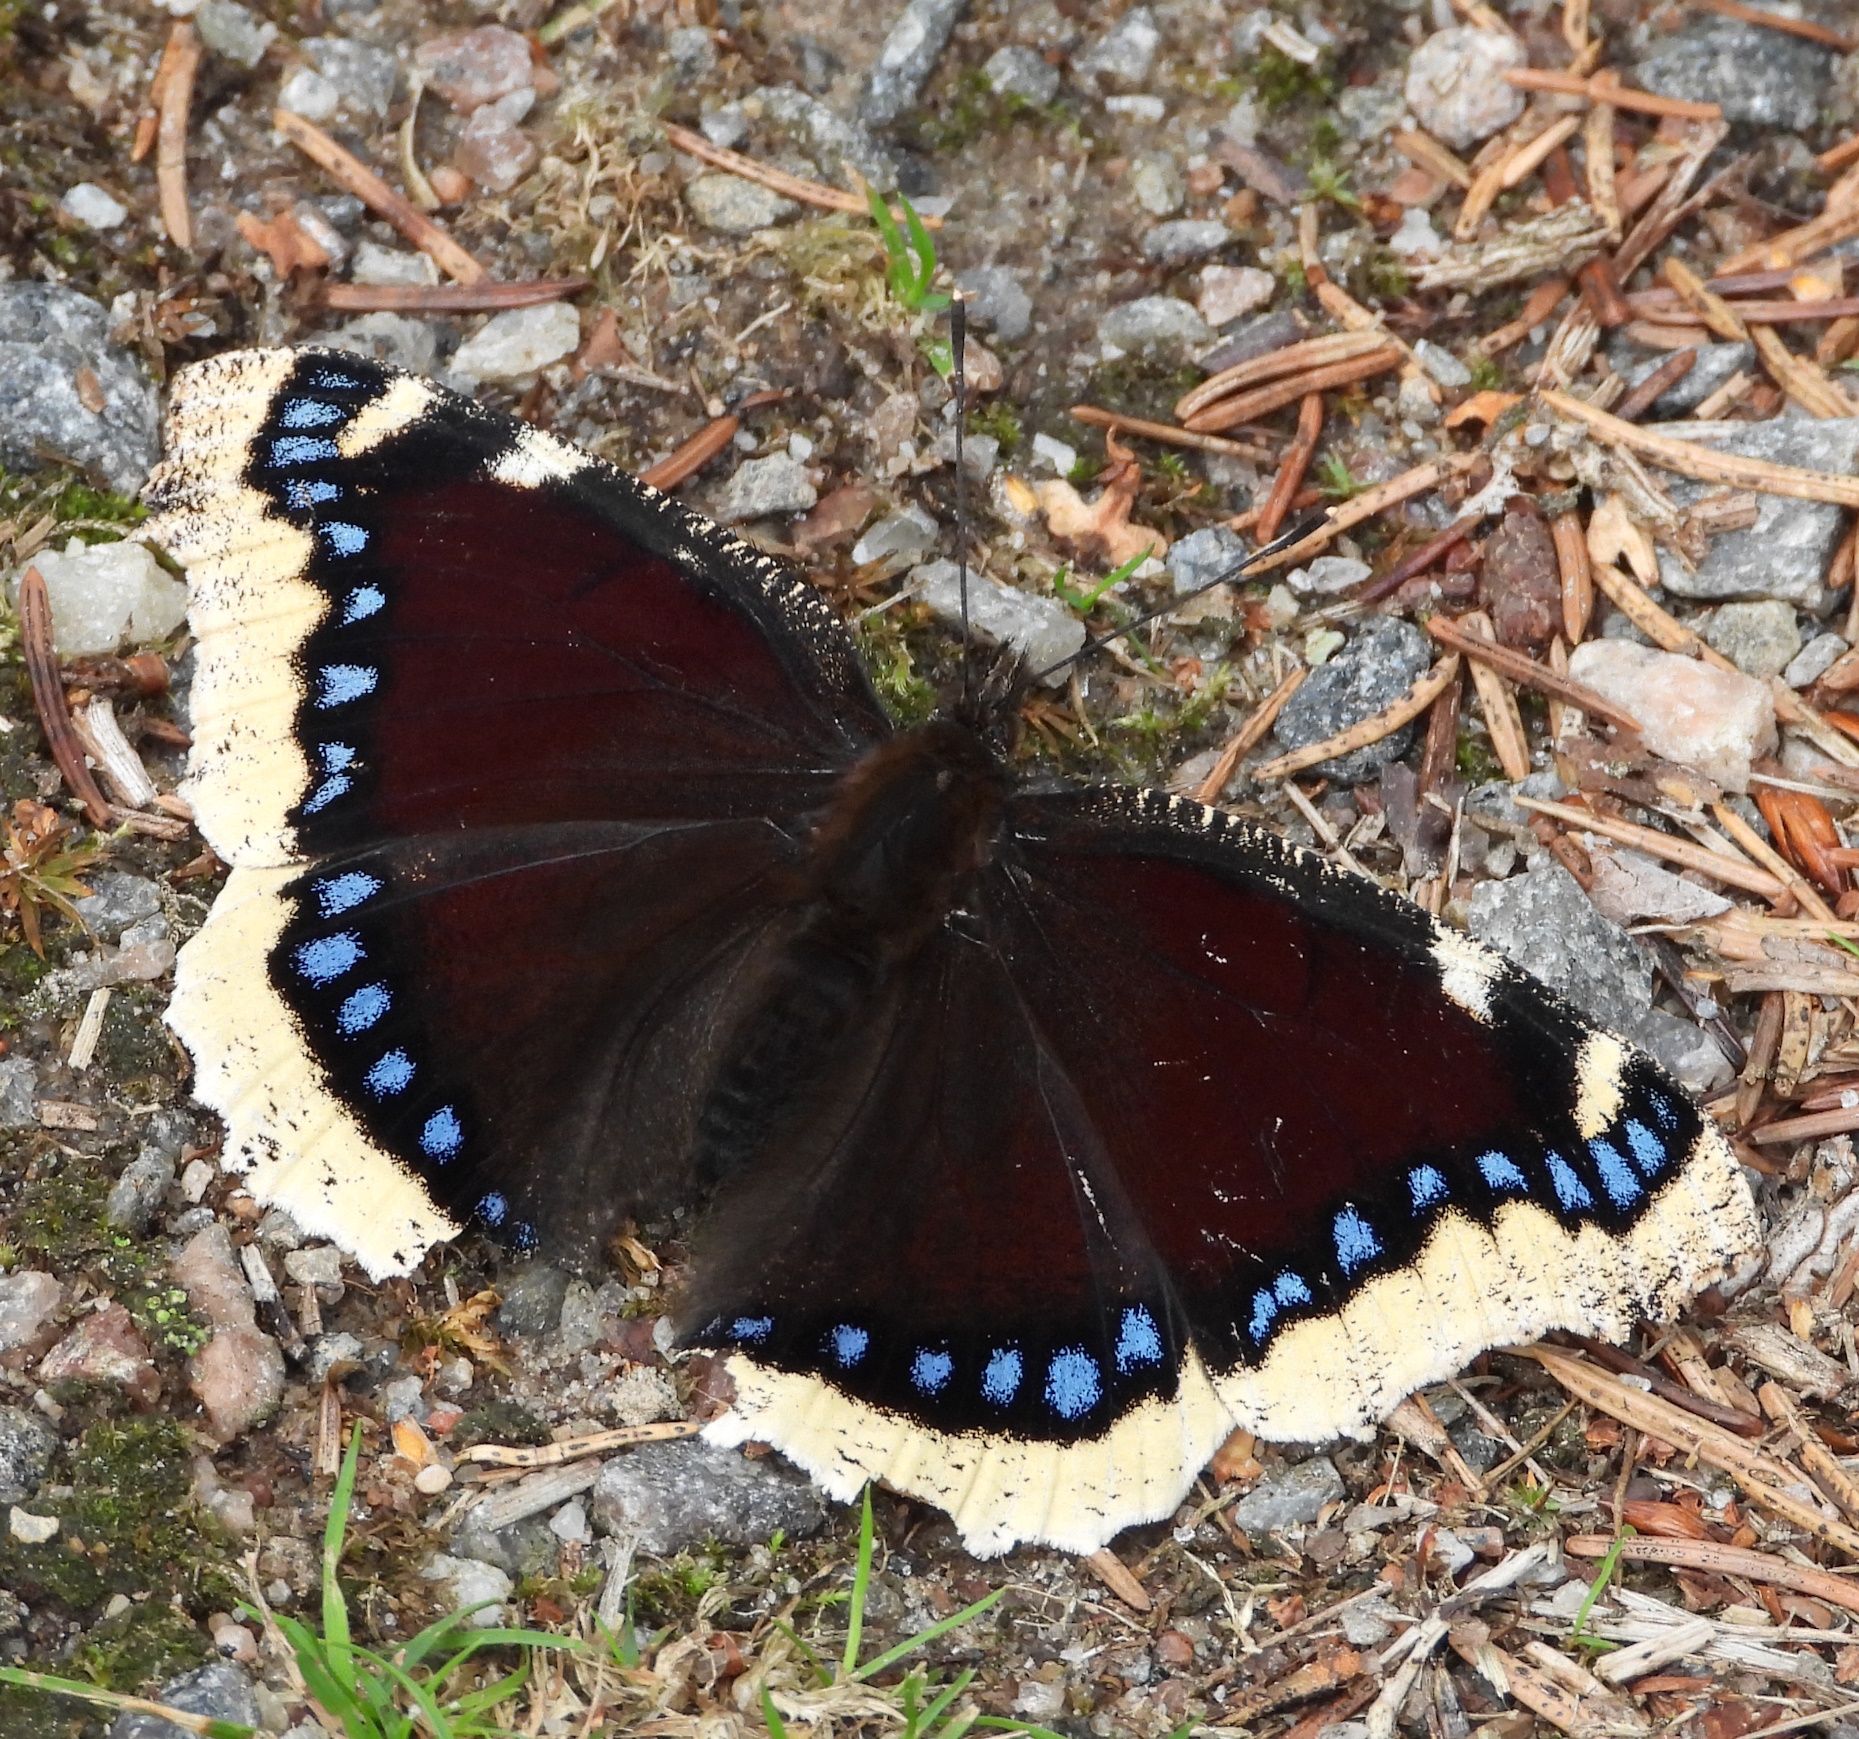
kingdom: Animalia
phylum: Arthropoda
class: Insecta
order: Lepidoptera
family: Nymphalidae
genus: Nymphalis
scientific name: Nymphalis antiopa
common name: Camberwell beauty
